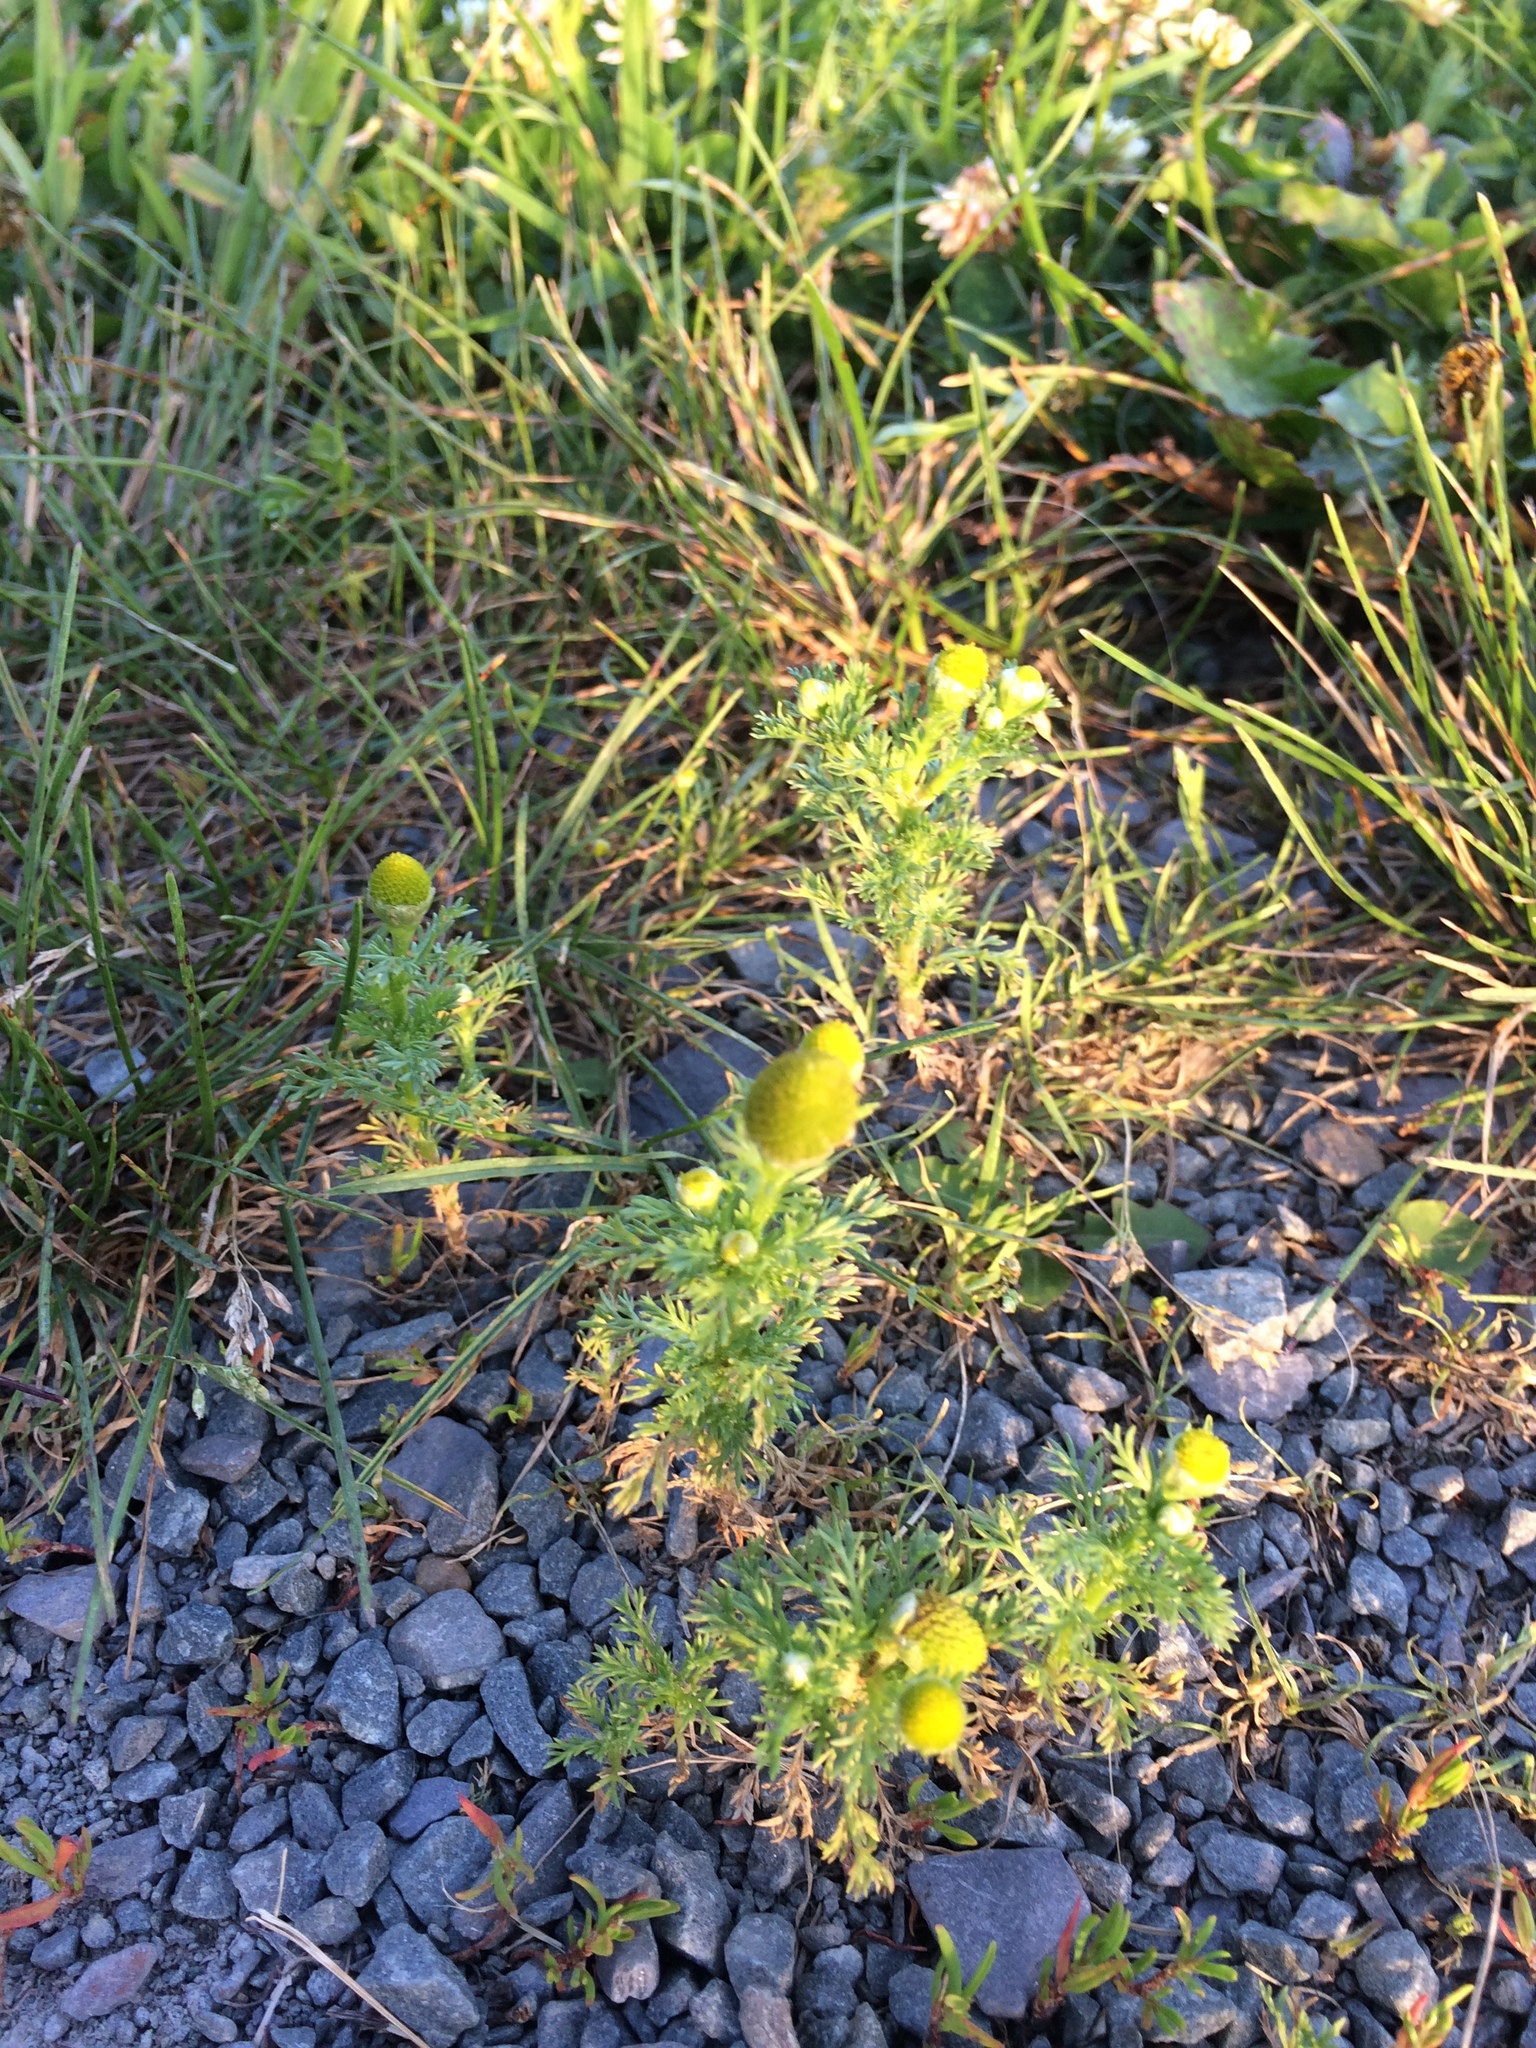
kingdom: Plantae
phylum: Tracheophyta
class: Magnoliopsida
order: Asterales
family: Asteraceae
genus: Matricaria
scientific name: Matricaria discoidea
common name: Disc mayweed
